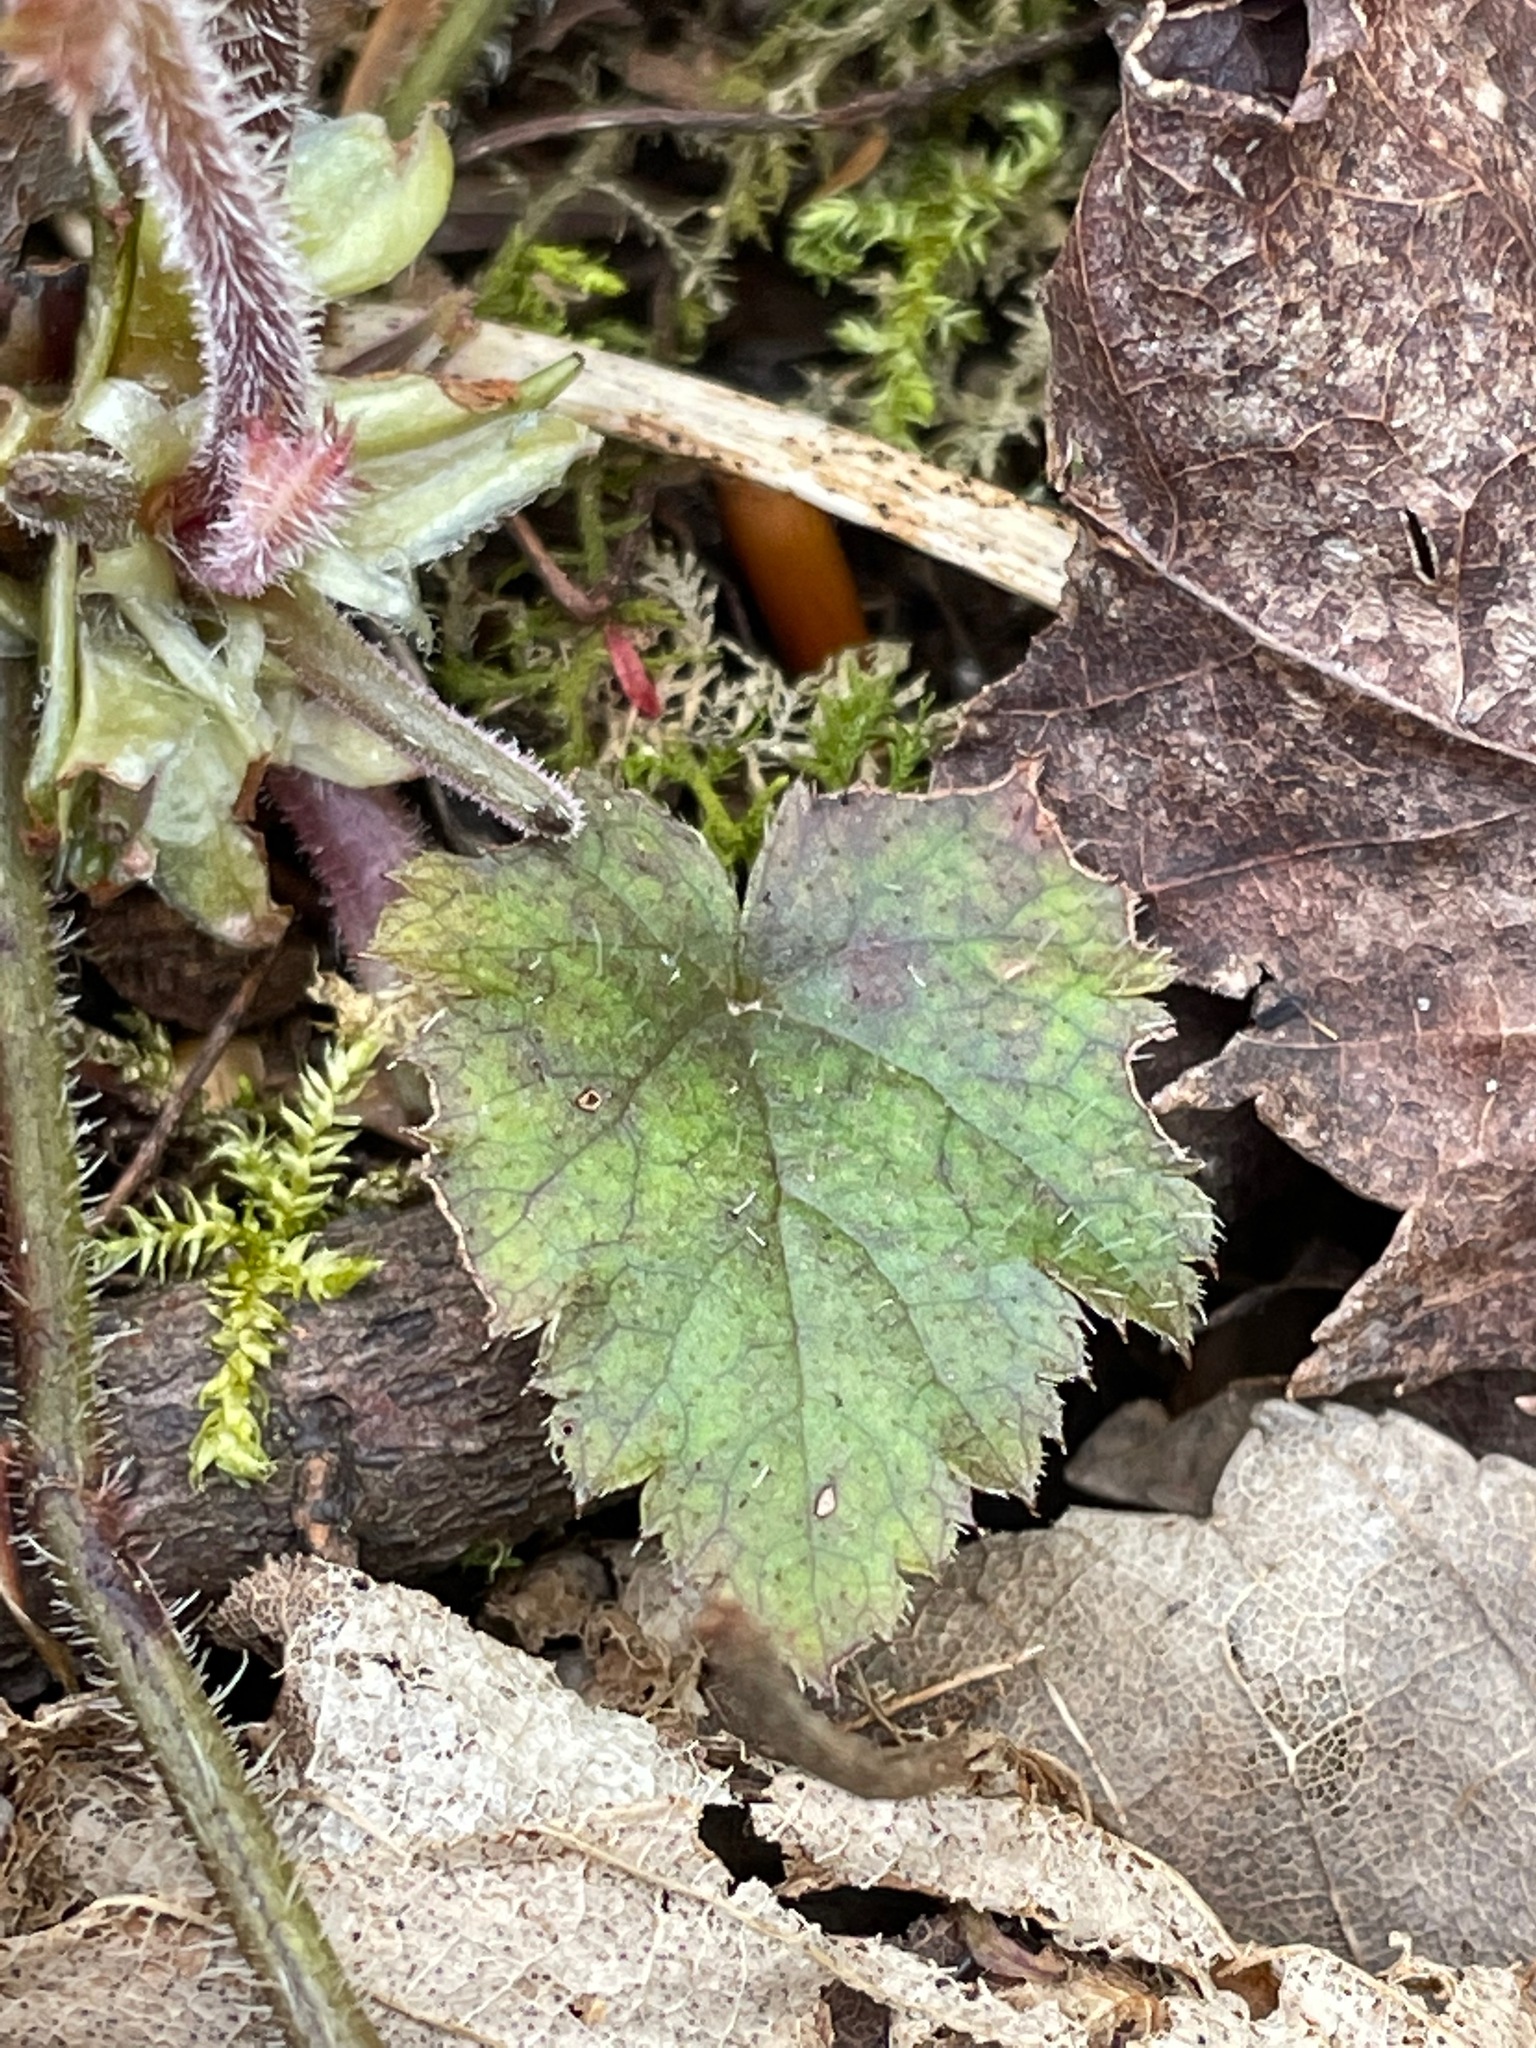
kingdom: Plantae
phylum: Tracheophyta
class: Magnoliopsida
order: Saxifragales
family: Saxifragaceae
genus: Tiarella
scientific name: Tiarella stolonifera
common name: Stoloniferous foamflower
